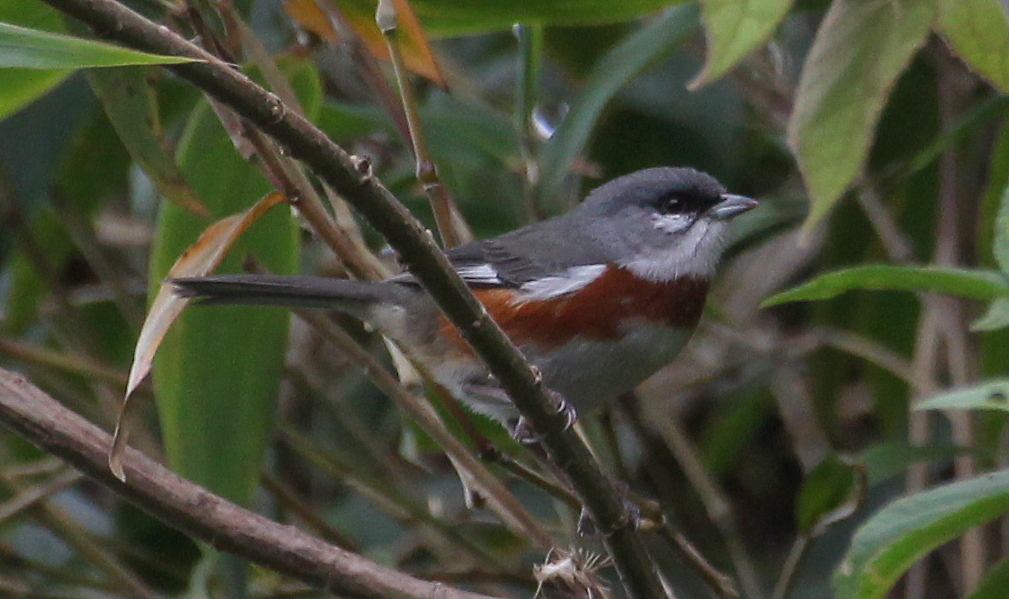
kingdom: Animalia
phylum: Chordata
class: Aves
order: Passeriformes
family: Thraupidae
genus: Castanozoster
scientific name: Castanozoster thoracicus
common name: Bay-chested warbling-finch
